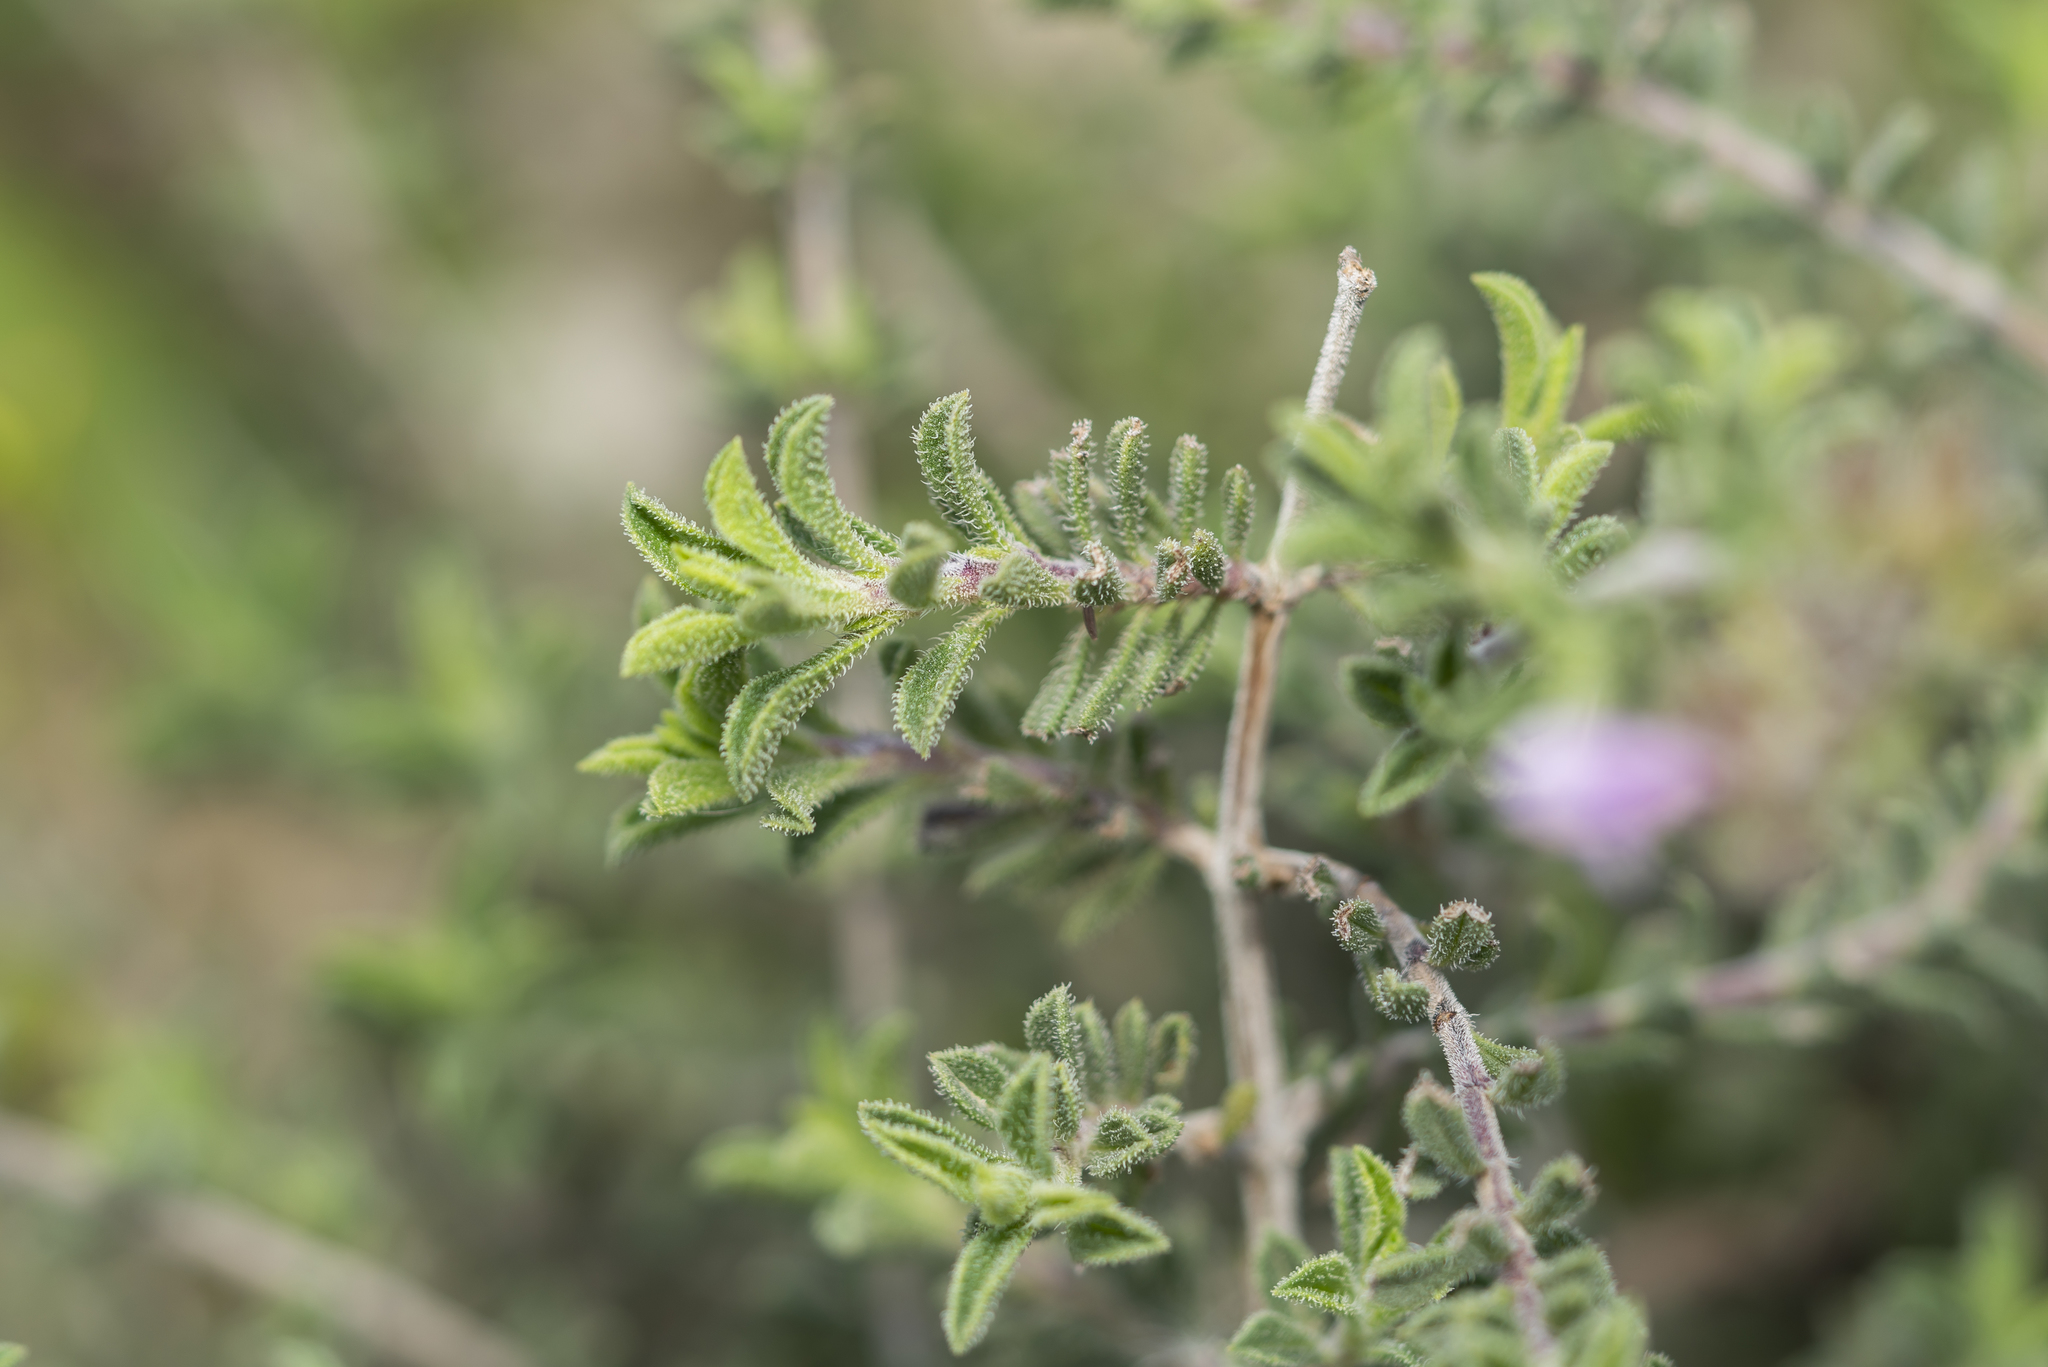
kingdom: Plantae
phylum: Tracheophyta
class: Magnoliopsida
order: Lamiales
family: Lamiaceae
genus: Satureja
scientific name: Satureja thymbra
